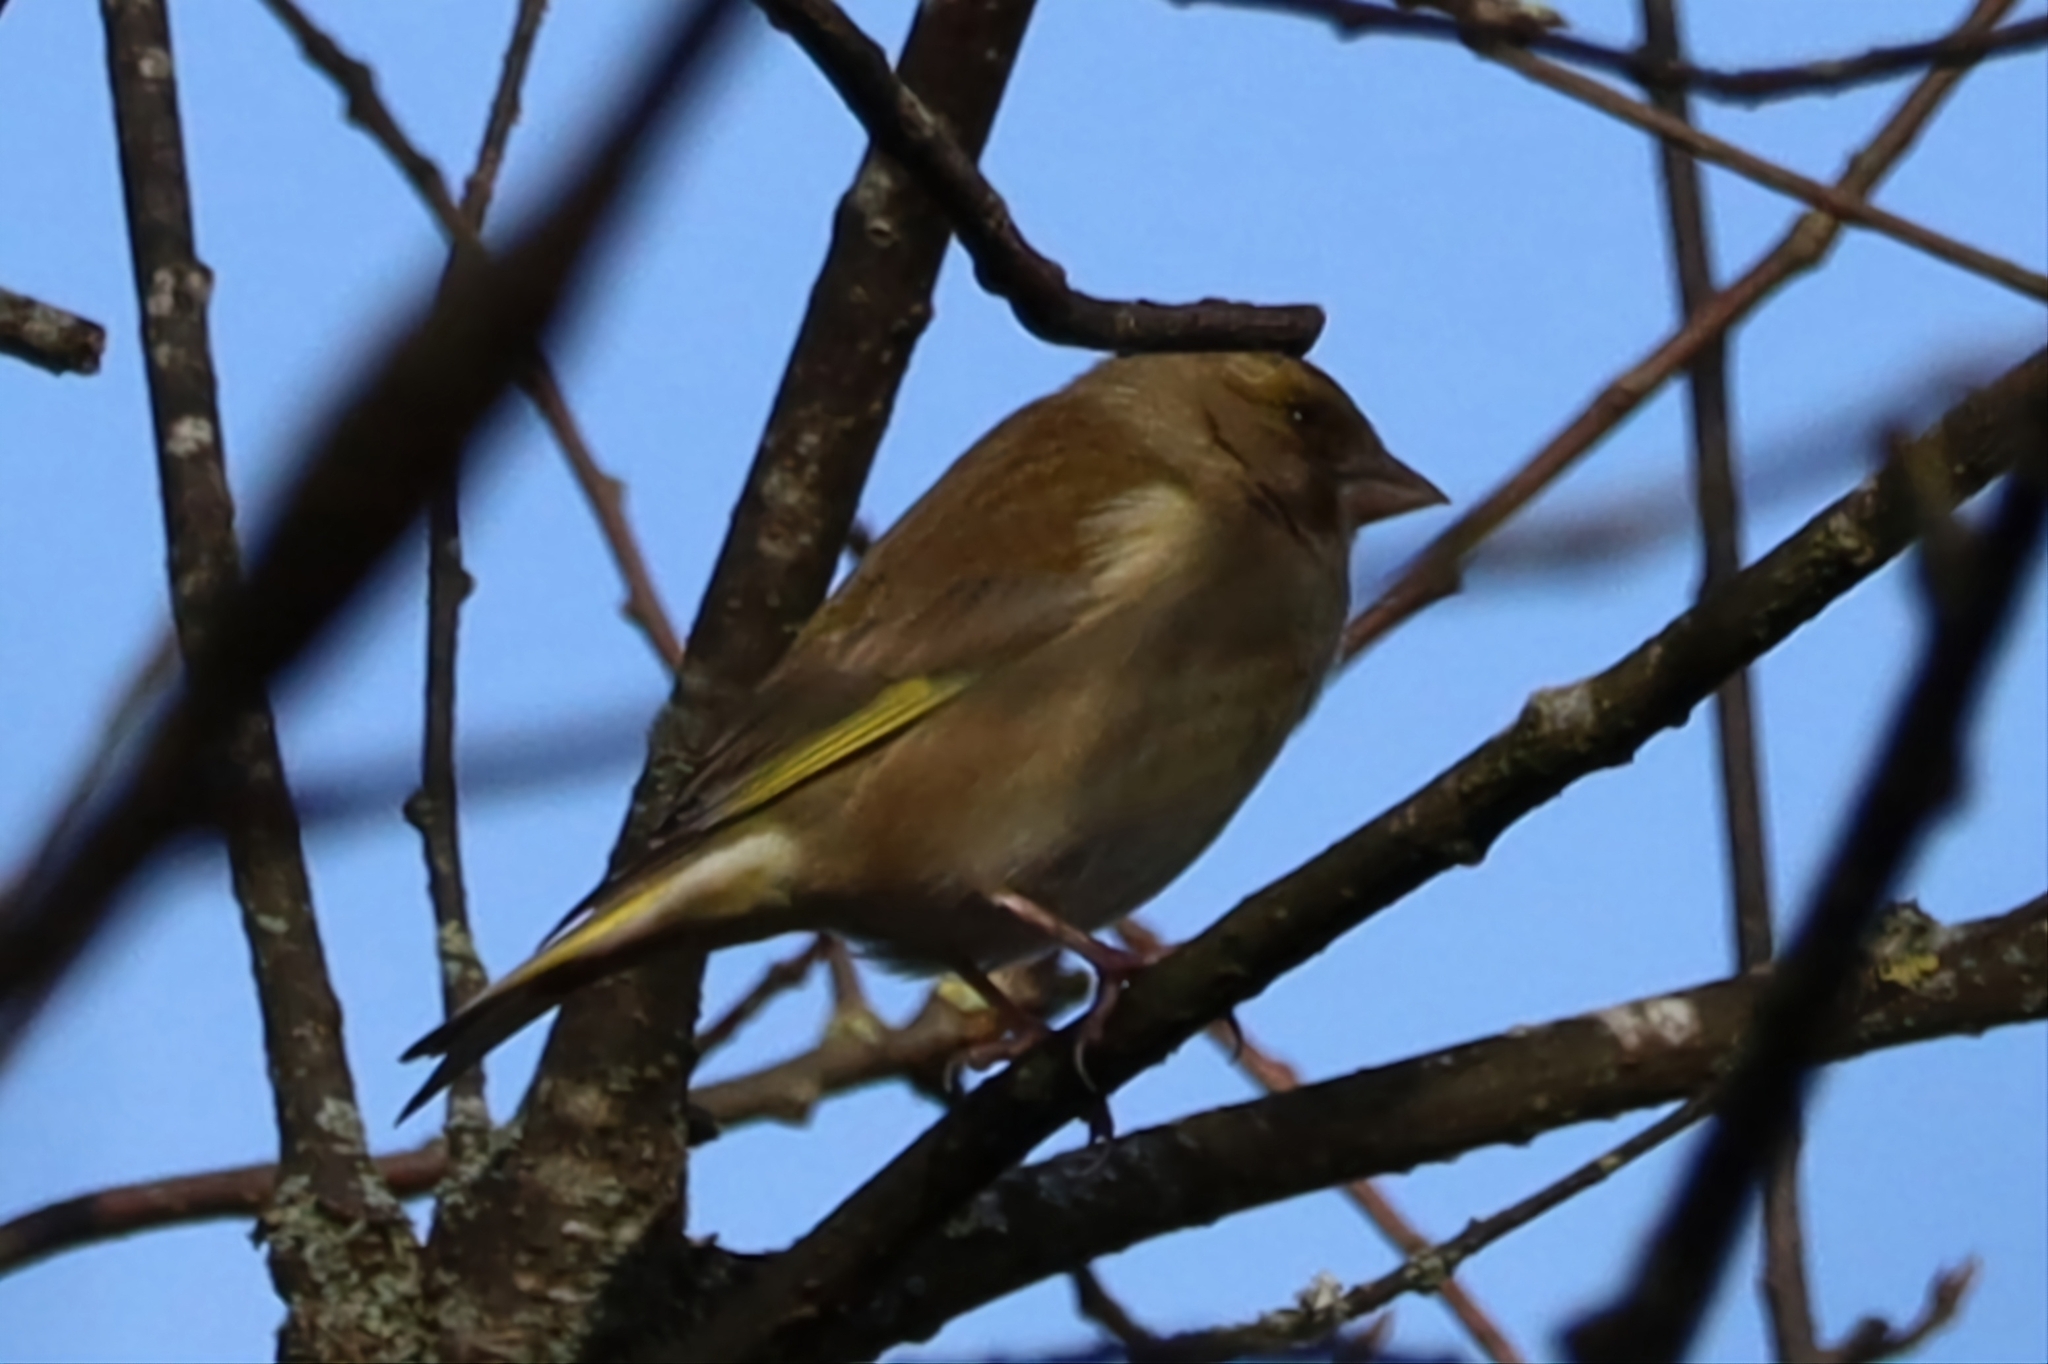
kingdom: Plantae
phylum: Tracheophyta
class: Liliopsida
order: Poales
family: Poaceae
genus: Chloris
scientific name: Chloris chloris
